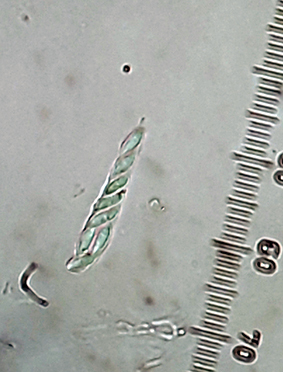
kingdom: Fungi
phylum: Ascomycota
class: Lecanoromycetes
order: Ostropales
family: Coenogoniaceae
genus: Coenogonium
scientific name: Coenogonium luteum
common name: Orange dimple lichen
